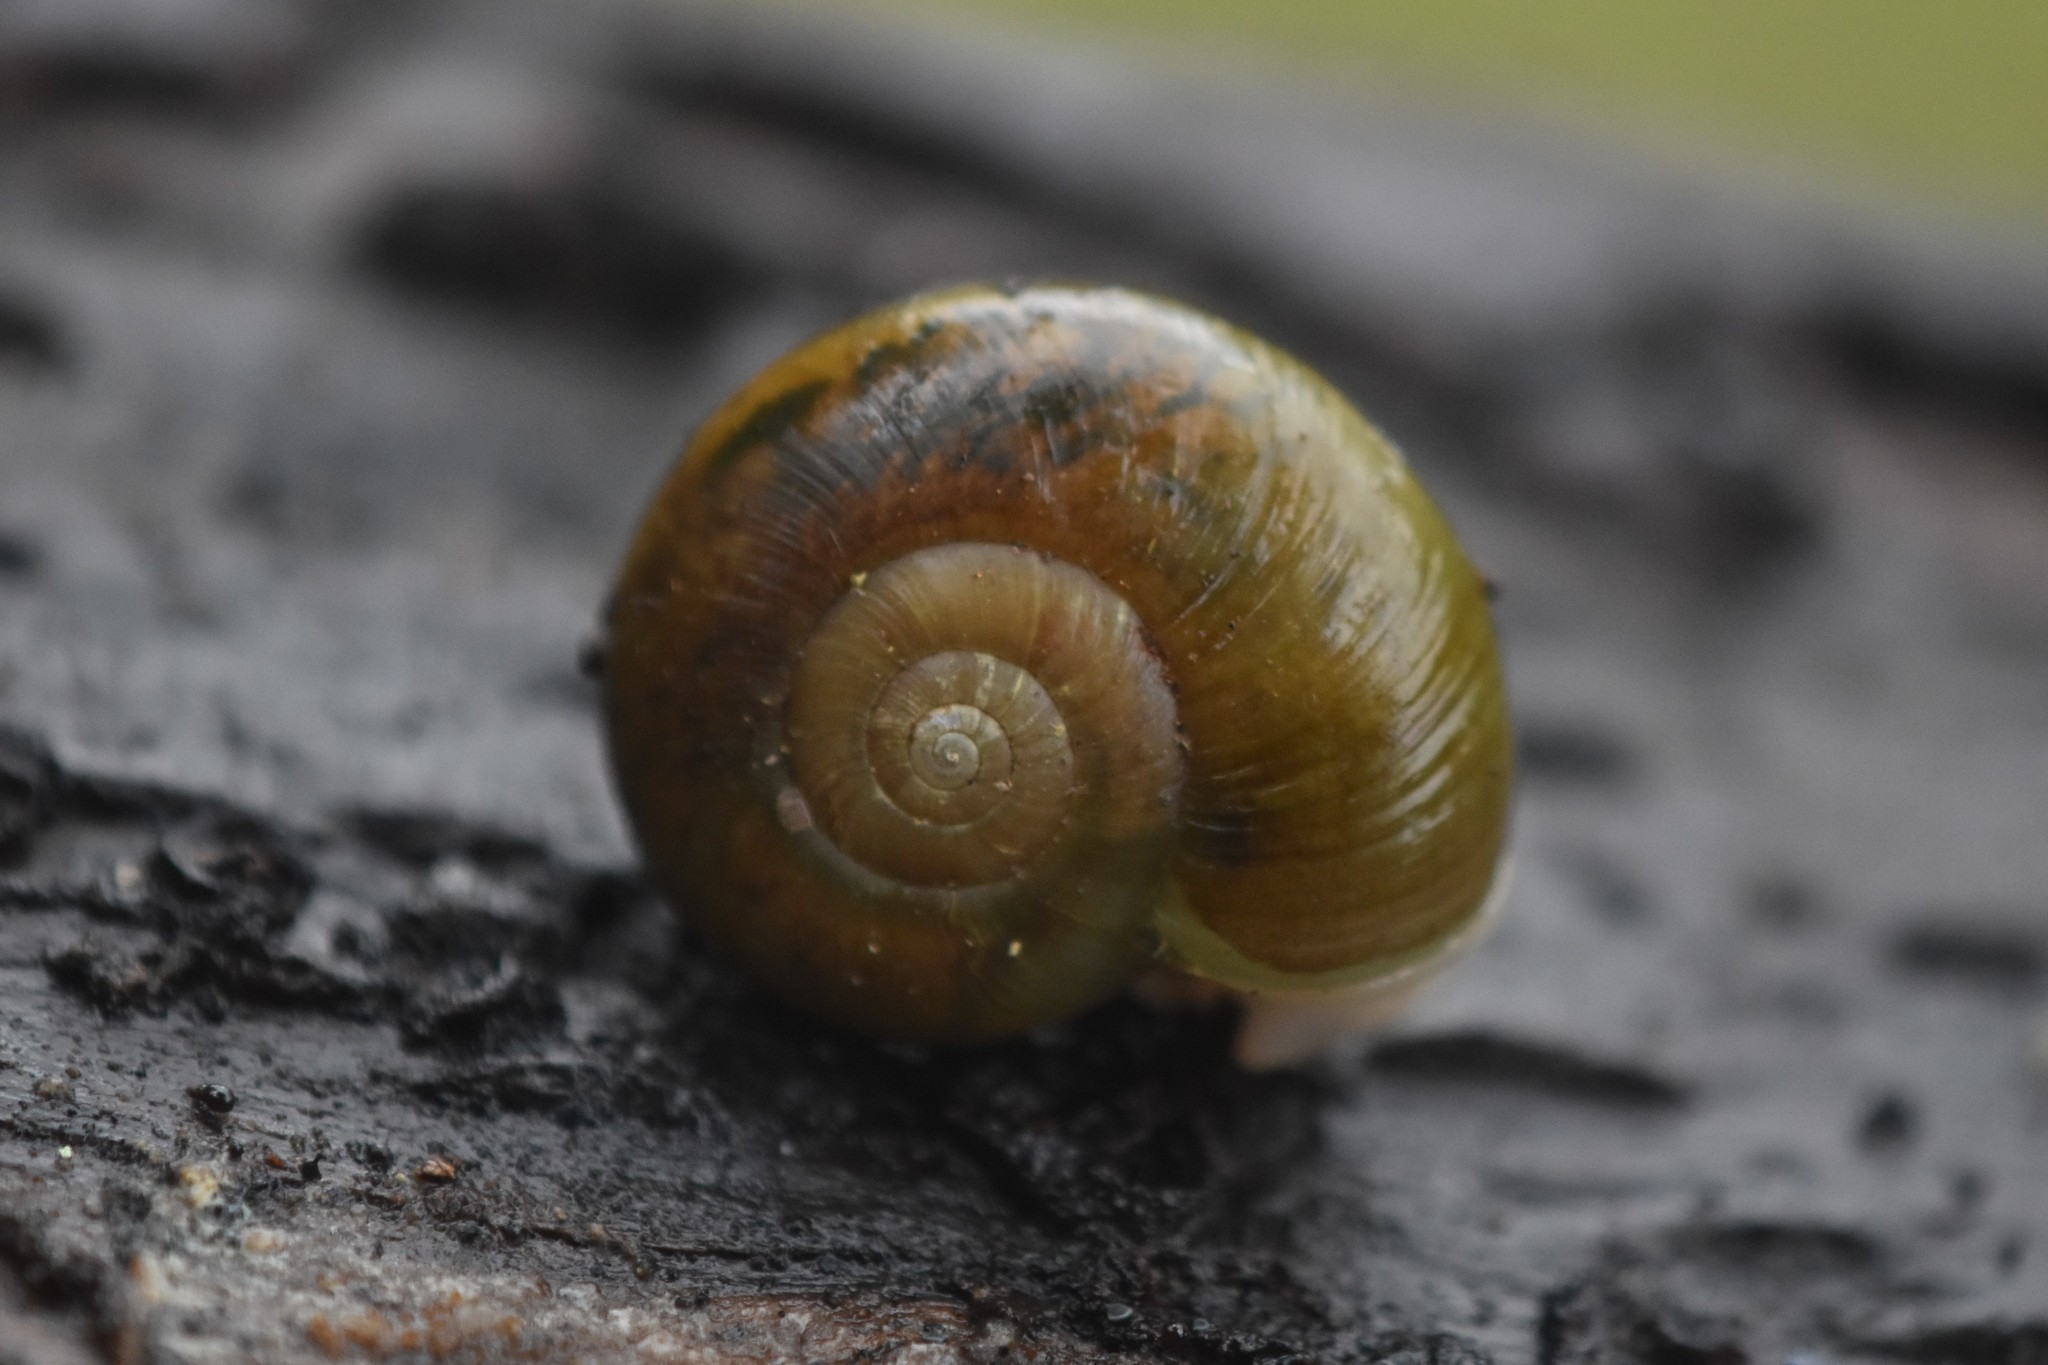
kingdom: Animalia
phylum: Mollusca
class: Gastropoda
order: Stylommatophora
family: Haplotrematidae
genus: Haplotrema
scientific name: Haplotrema vancouverense
